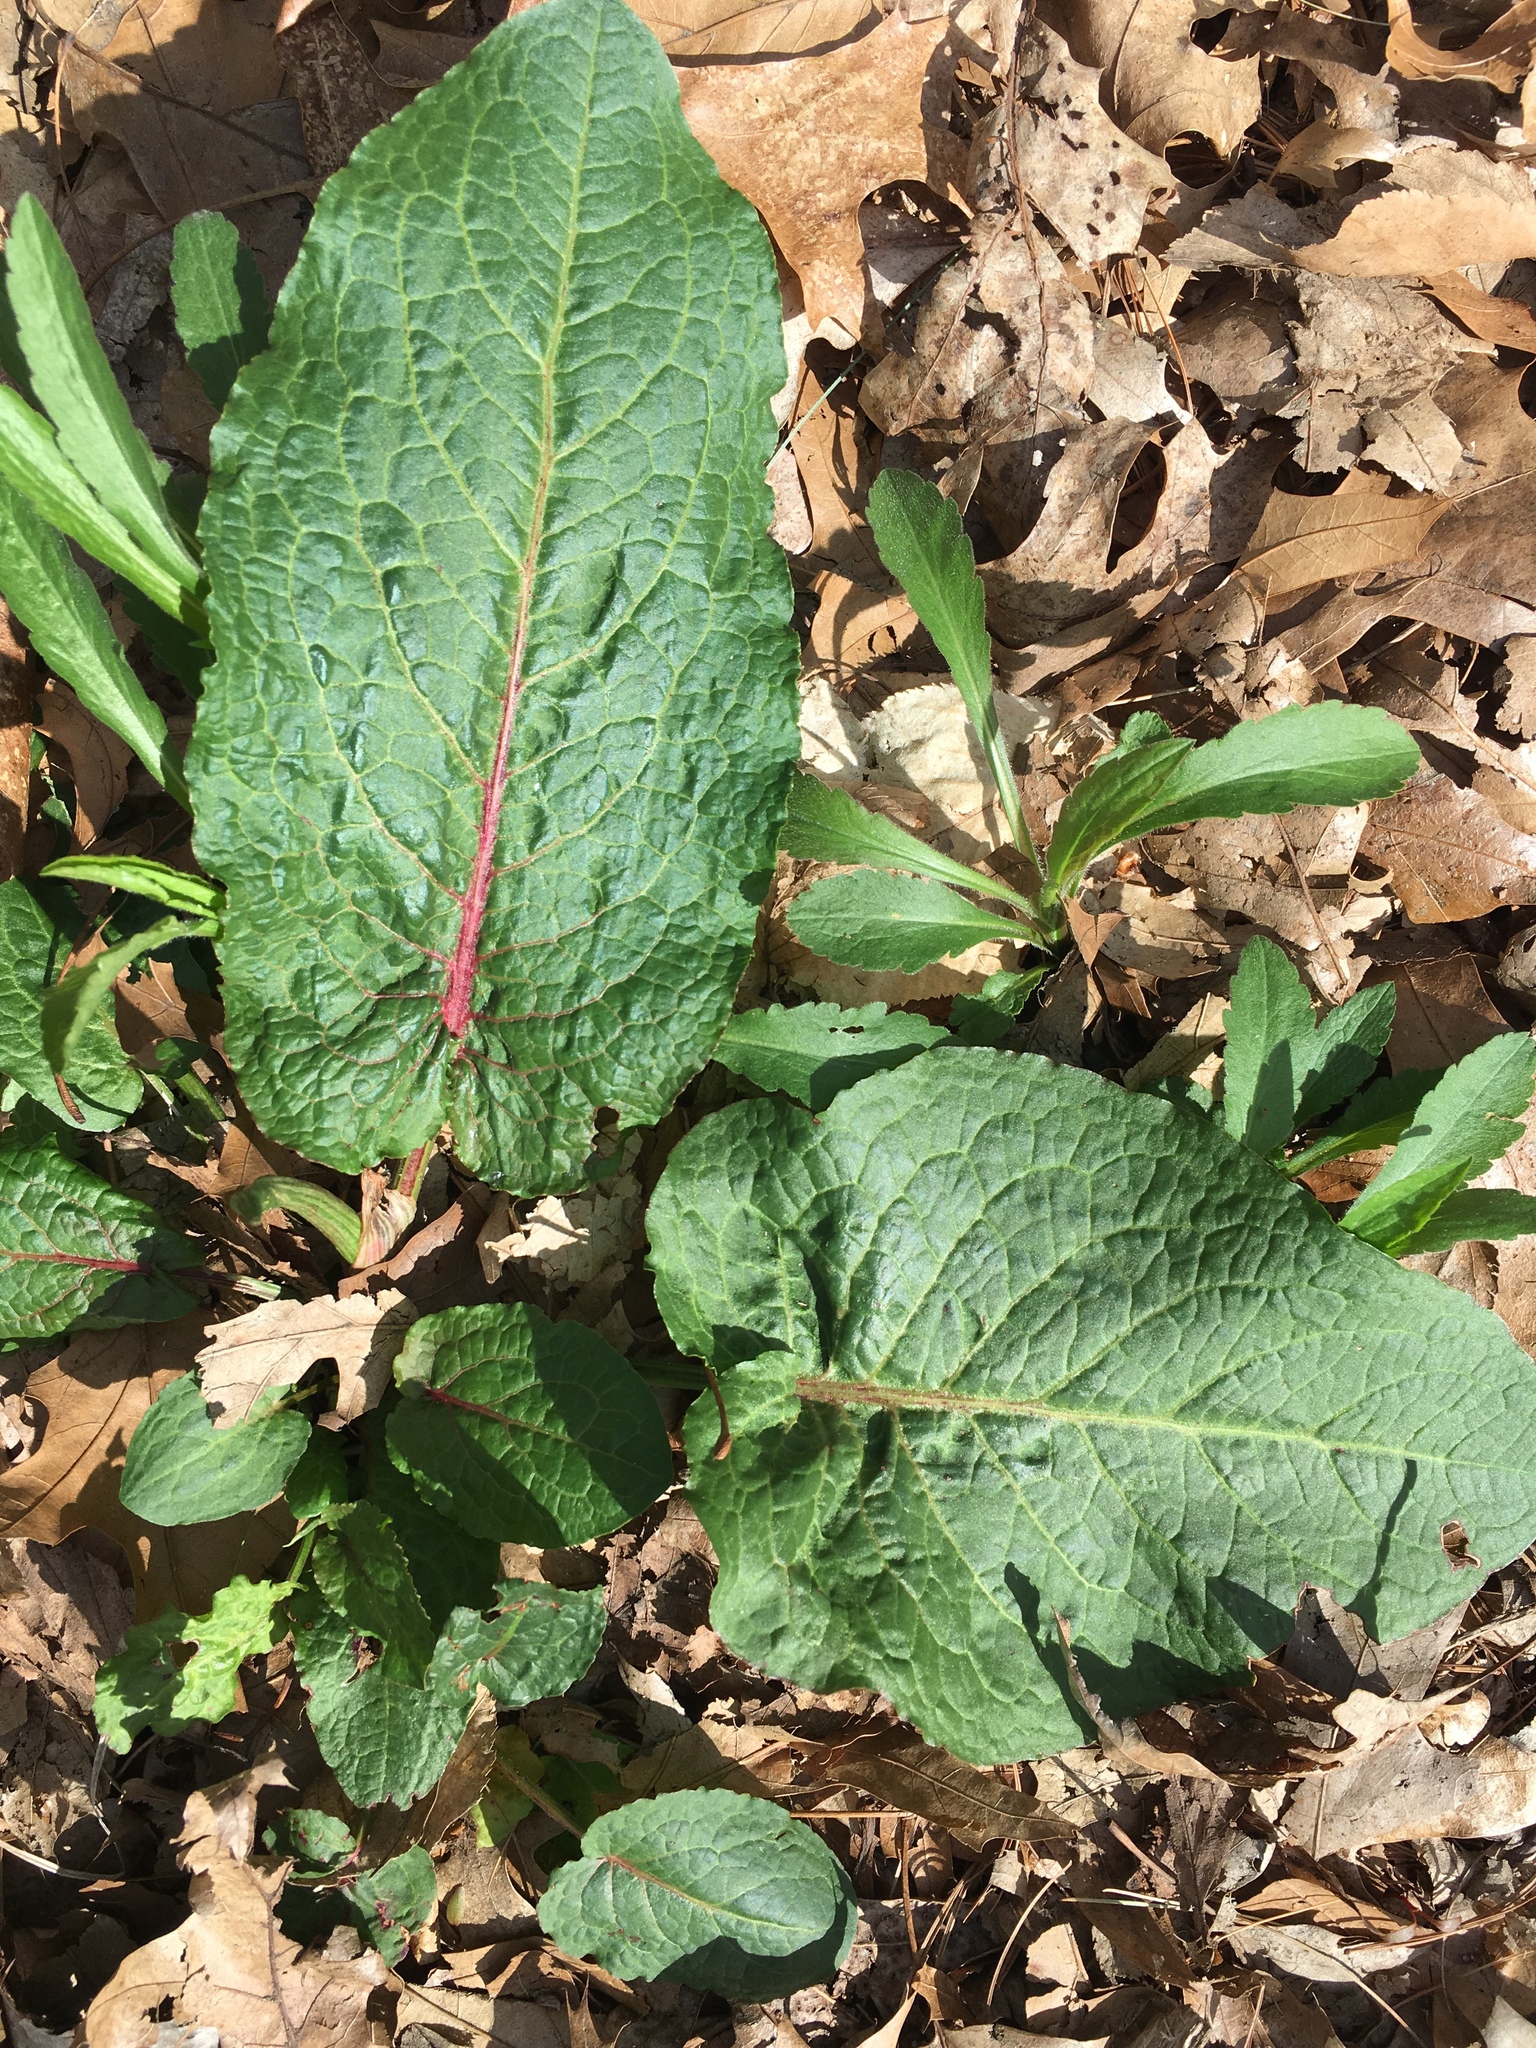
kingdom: Plantae
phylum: Tracheophyta
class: Magnoliopsida
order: Caryophyllales
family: Polygonaceae
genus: Rumex
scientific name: Rumex obtusifolius
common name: Bitter dock
